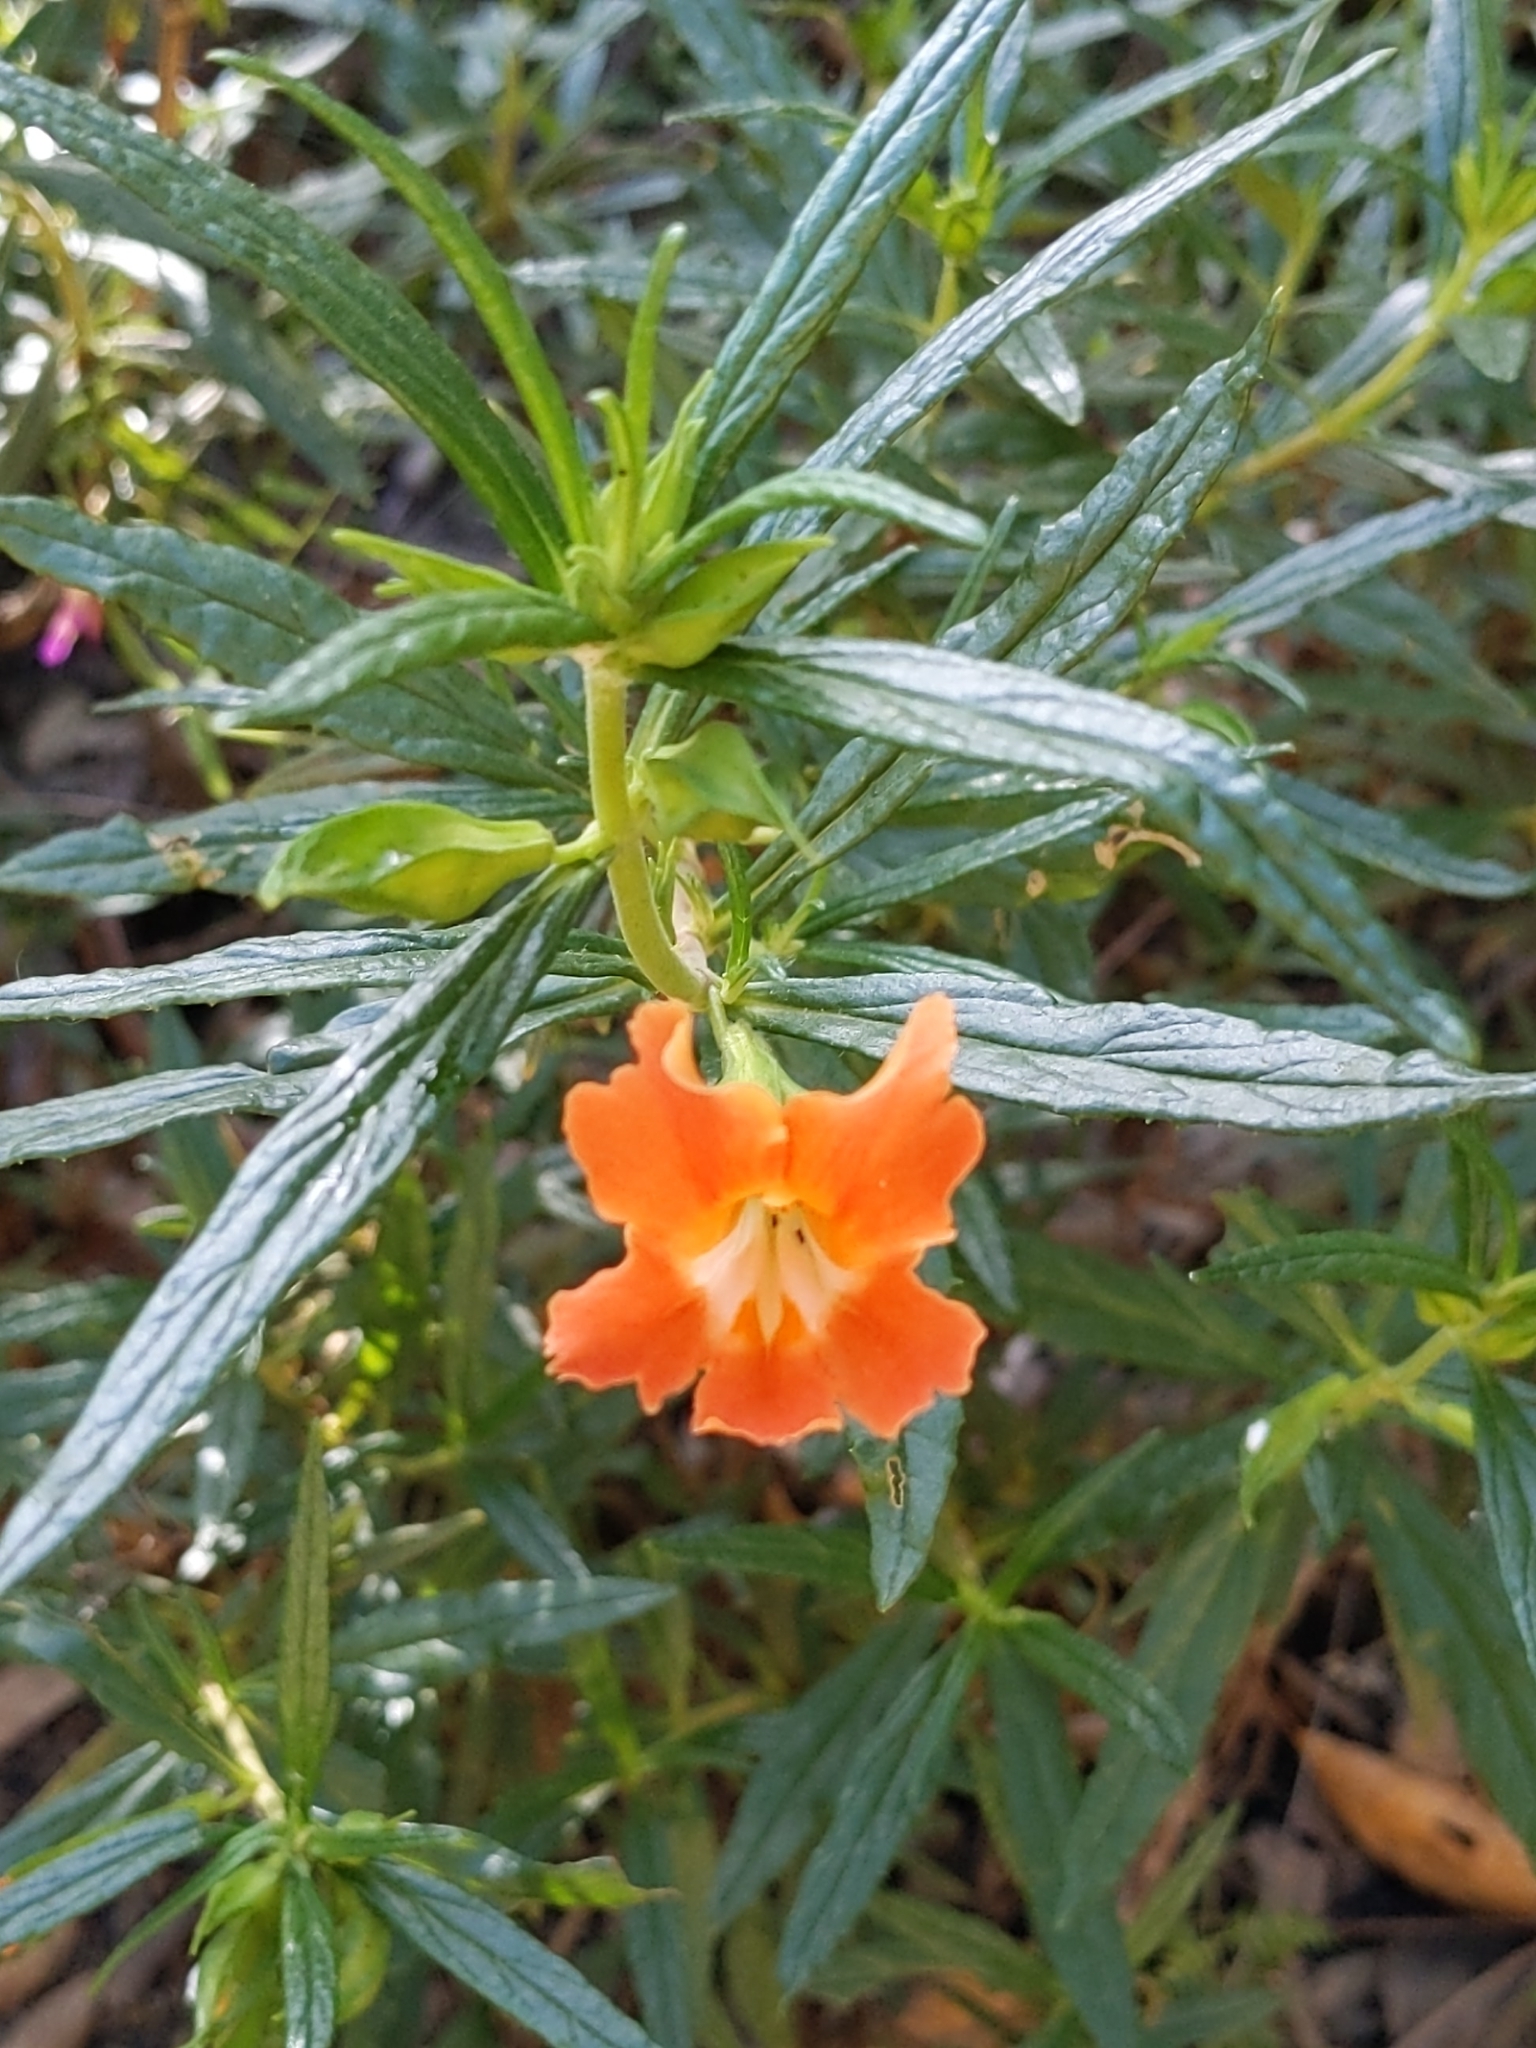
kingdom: Plantae
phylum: Tracheophyta
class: Magnoliopsida
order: Lamiales
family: Phrymaceae
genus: Diplacus
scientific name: Diplacus australis
